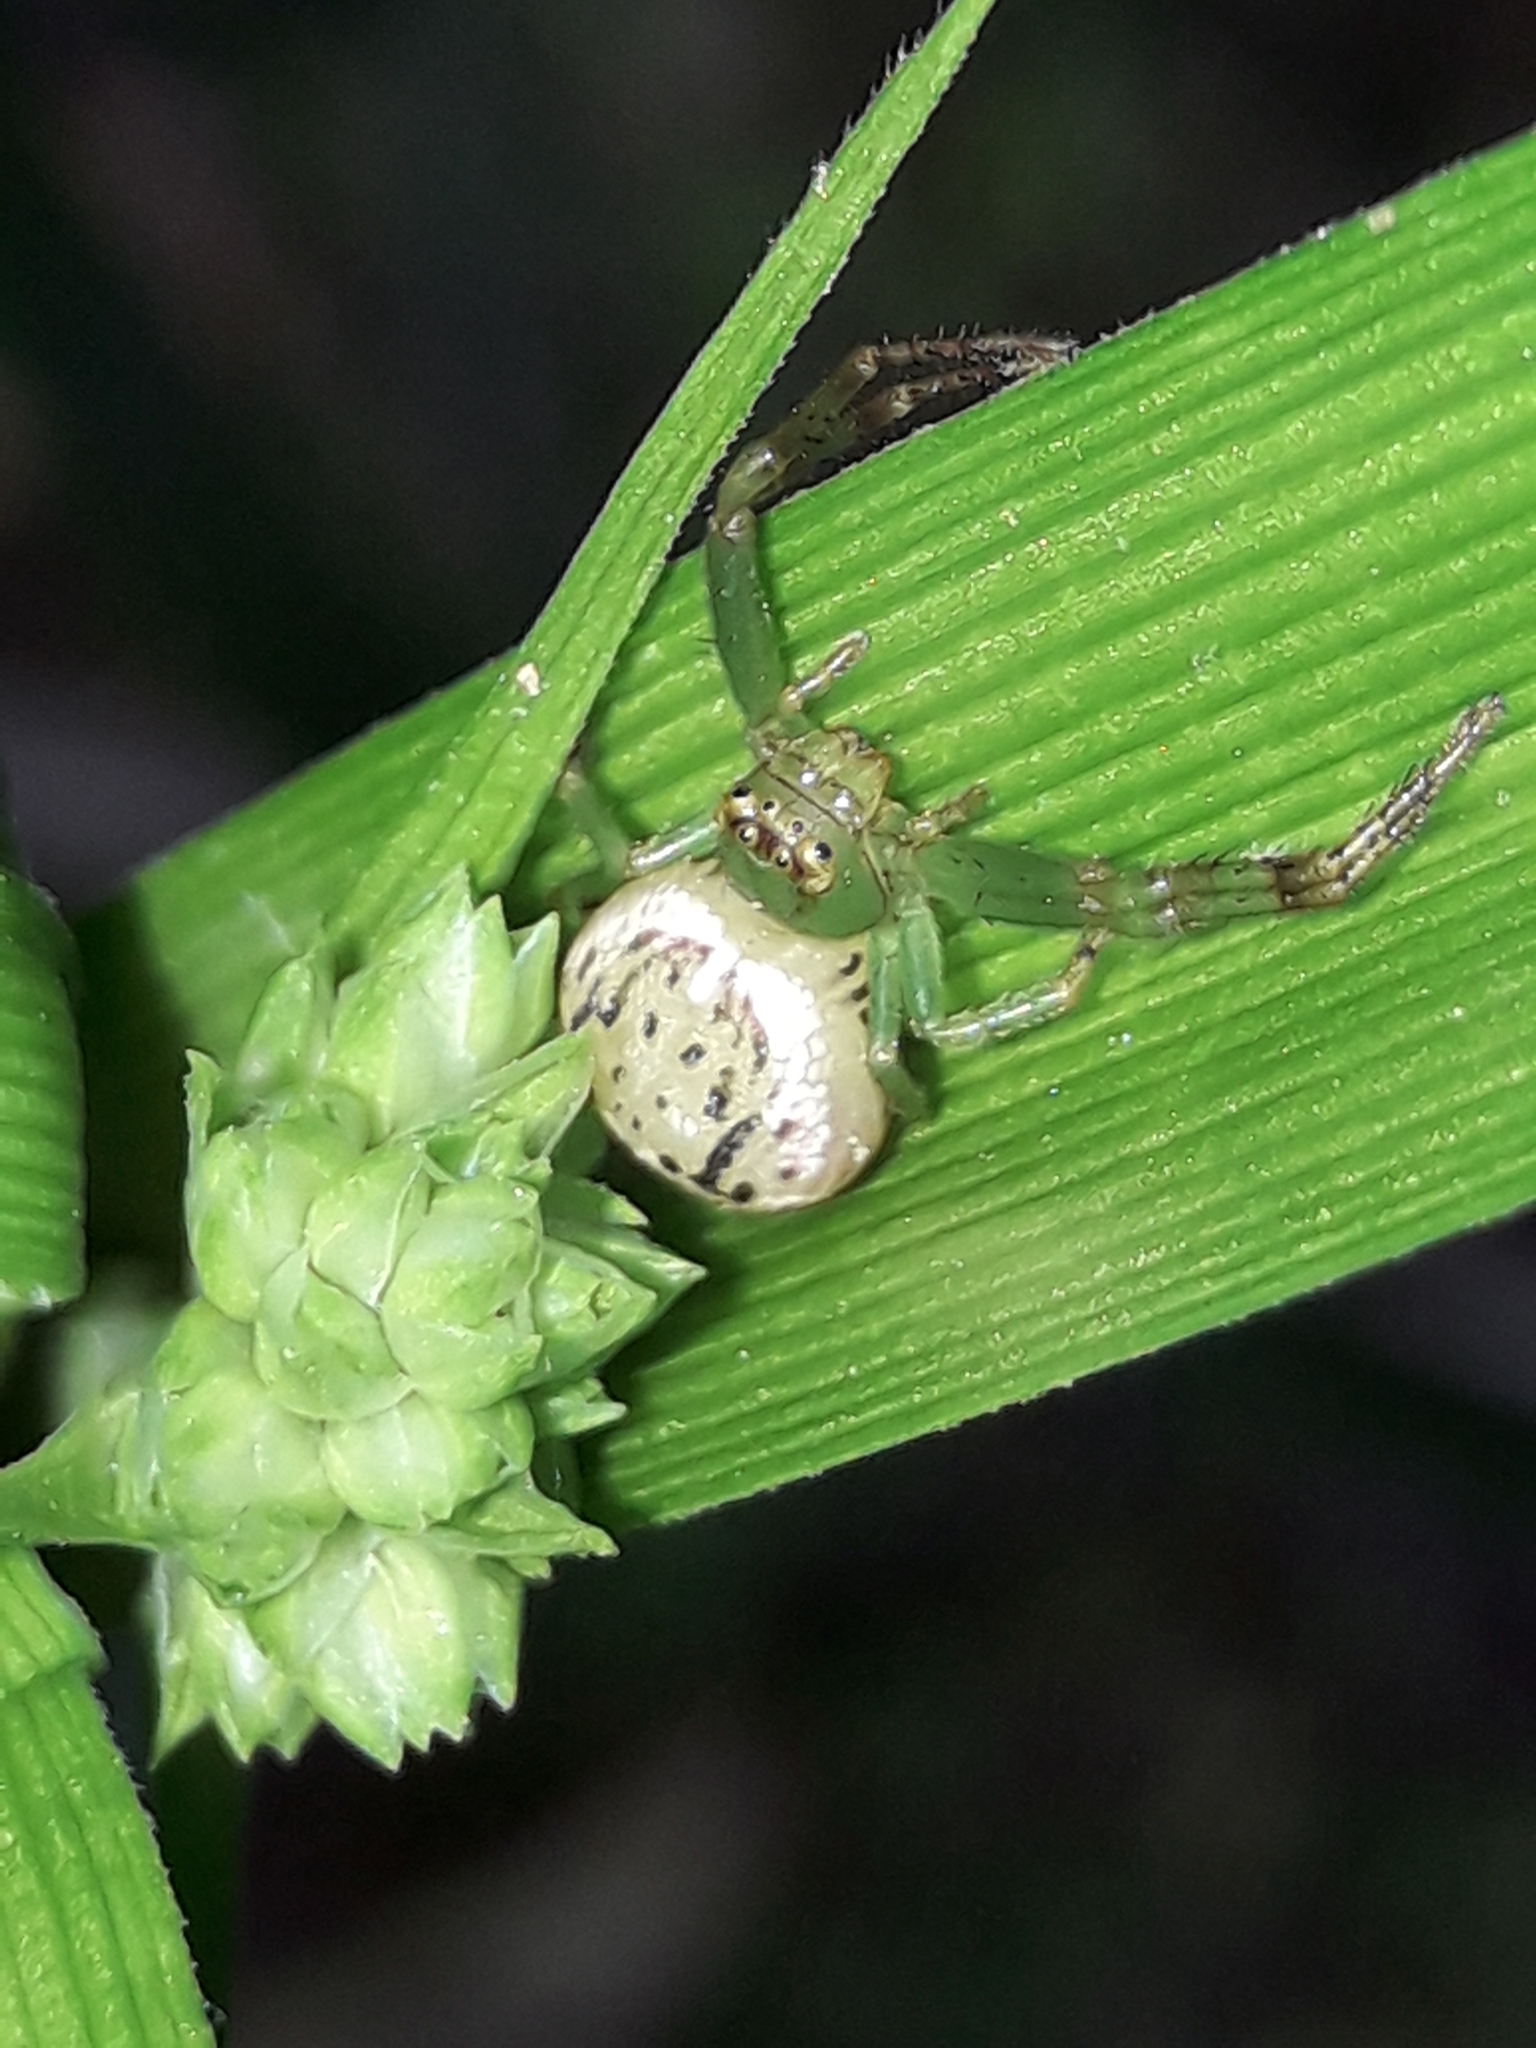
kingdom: Animalia
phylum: Arthropoda
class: Arachnida
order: Araneae
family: Thomisidae
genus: Diaea
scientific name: Diaea ambara
